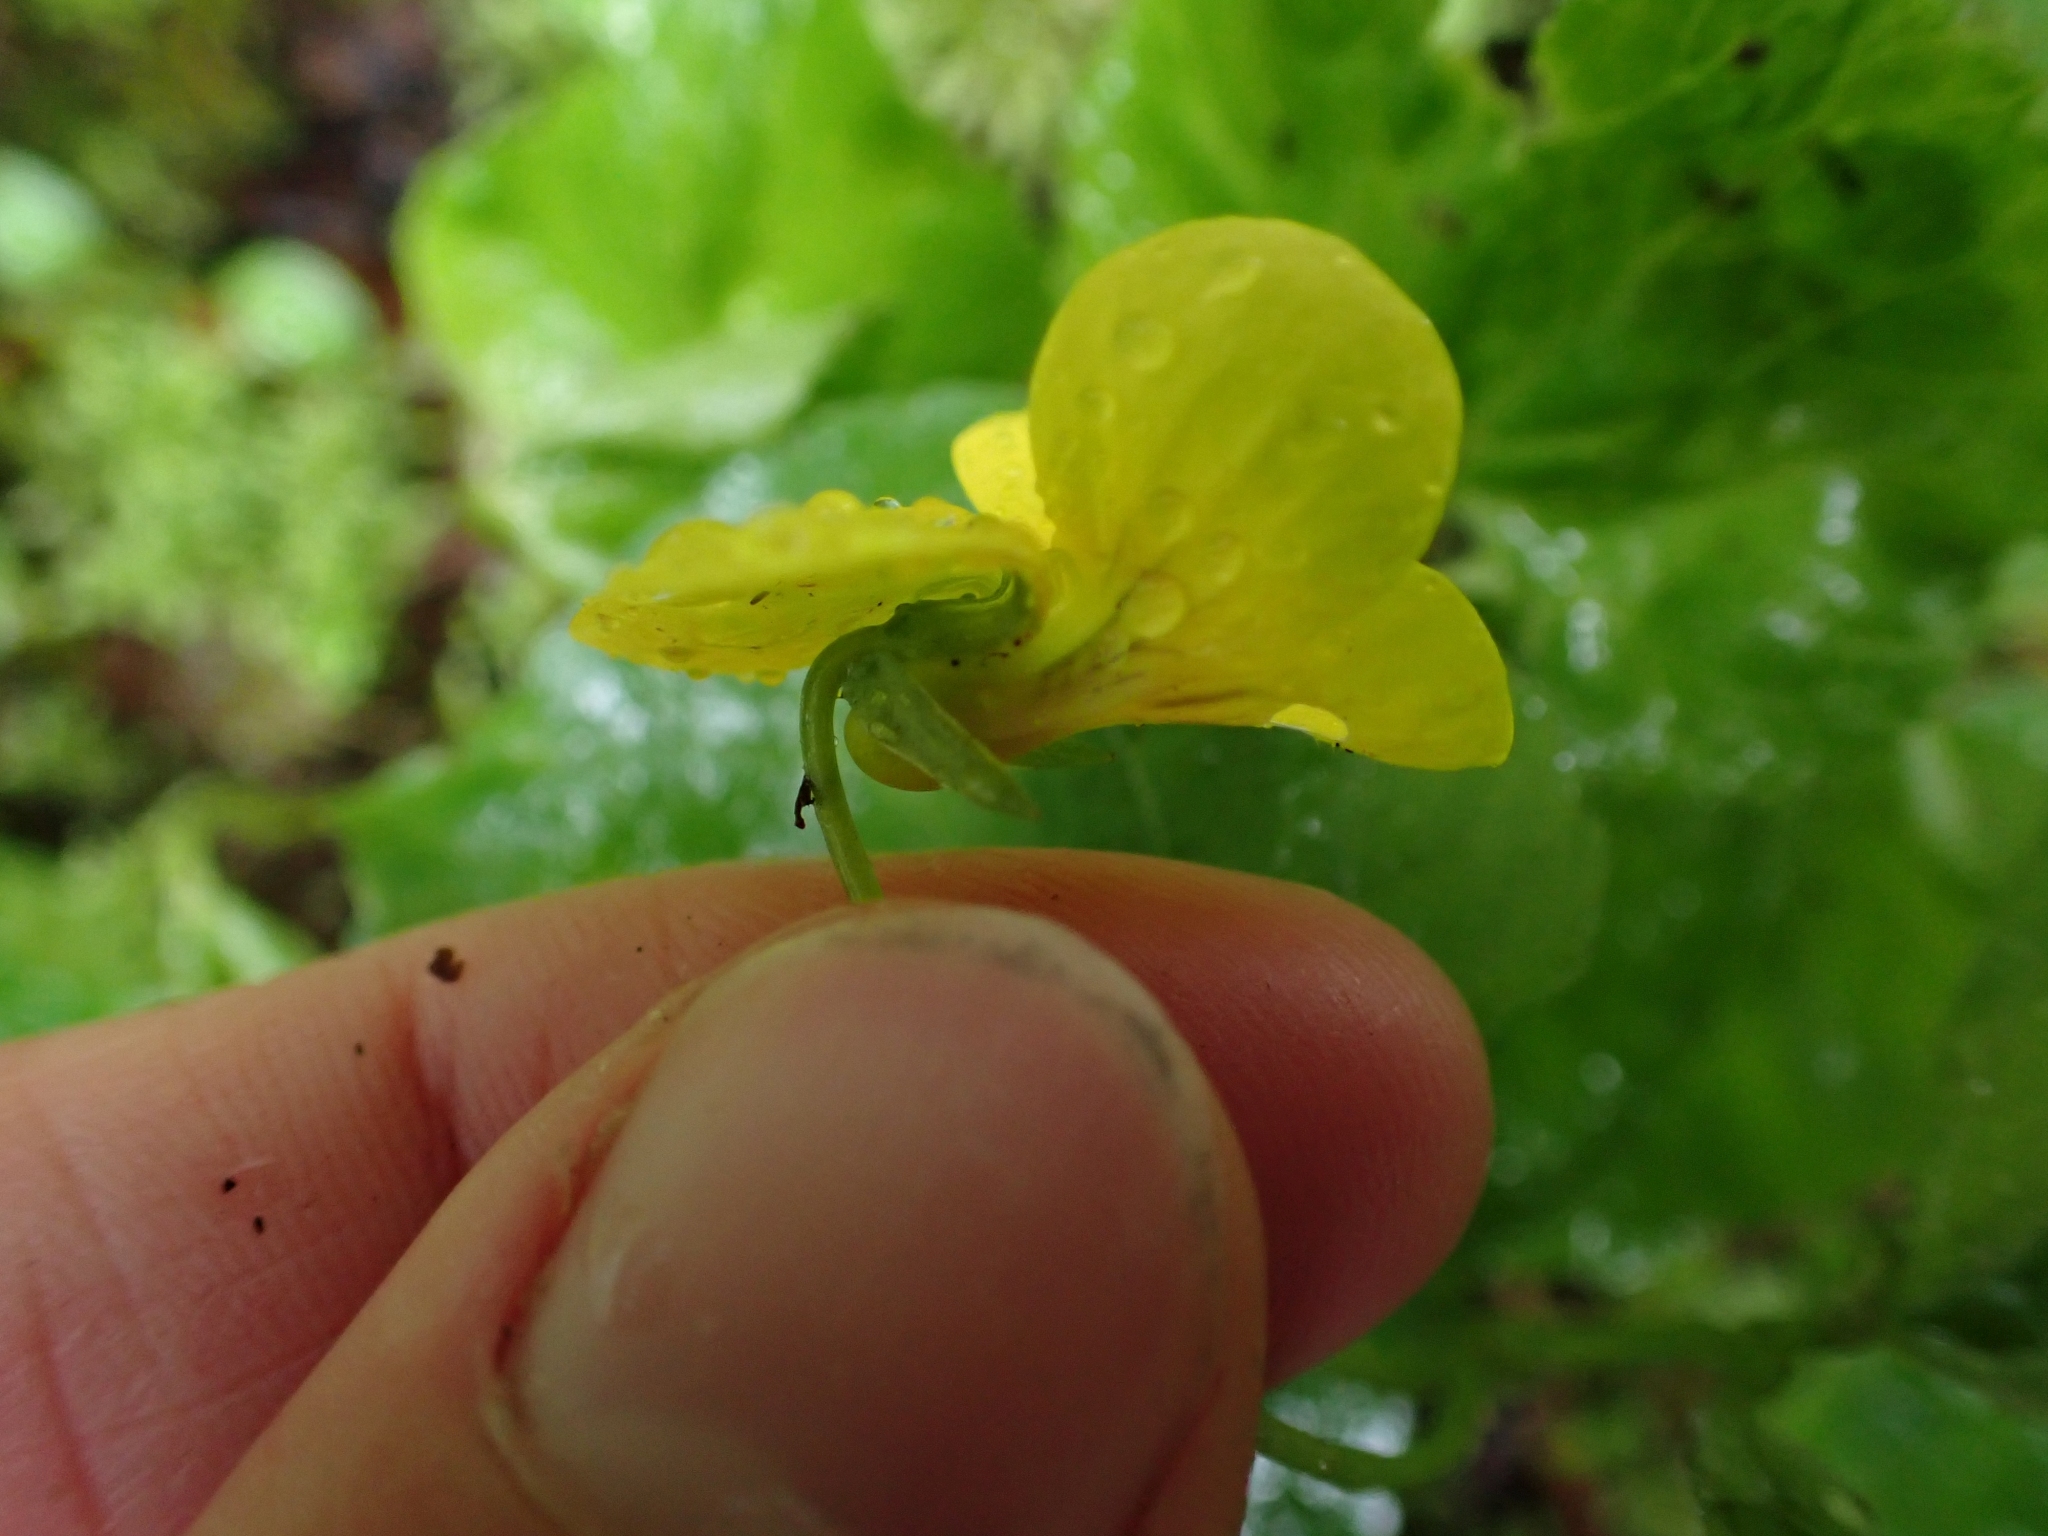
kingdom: Plantae
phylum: Tracheophyta
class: Magnoliopsida
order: Malpighiales
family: Violaceae
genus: Viola
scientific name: Viola glabella
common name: Stream violet
